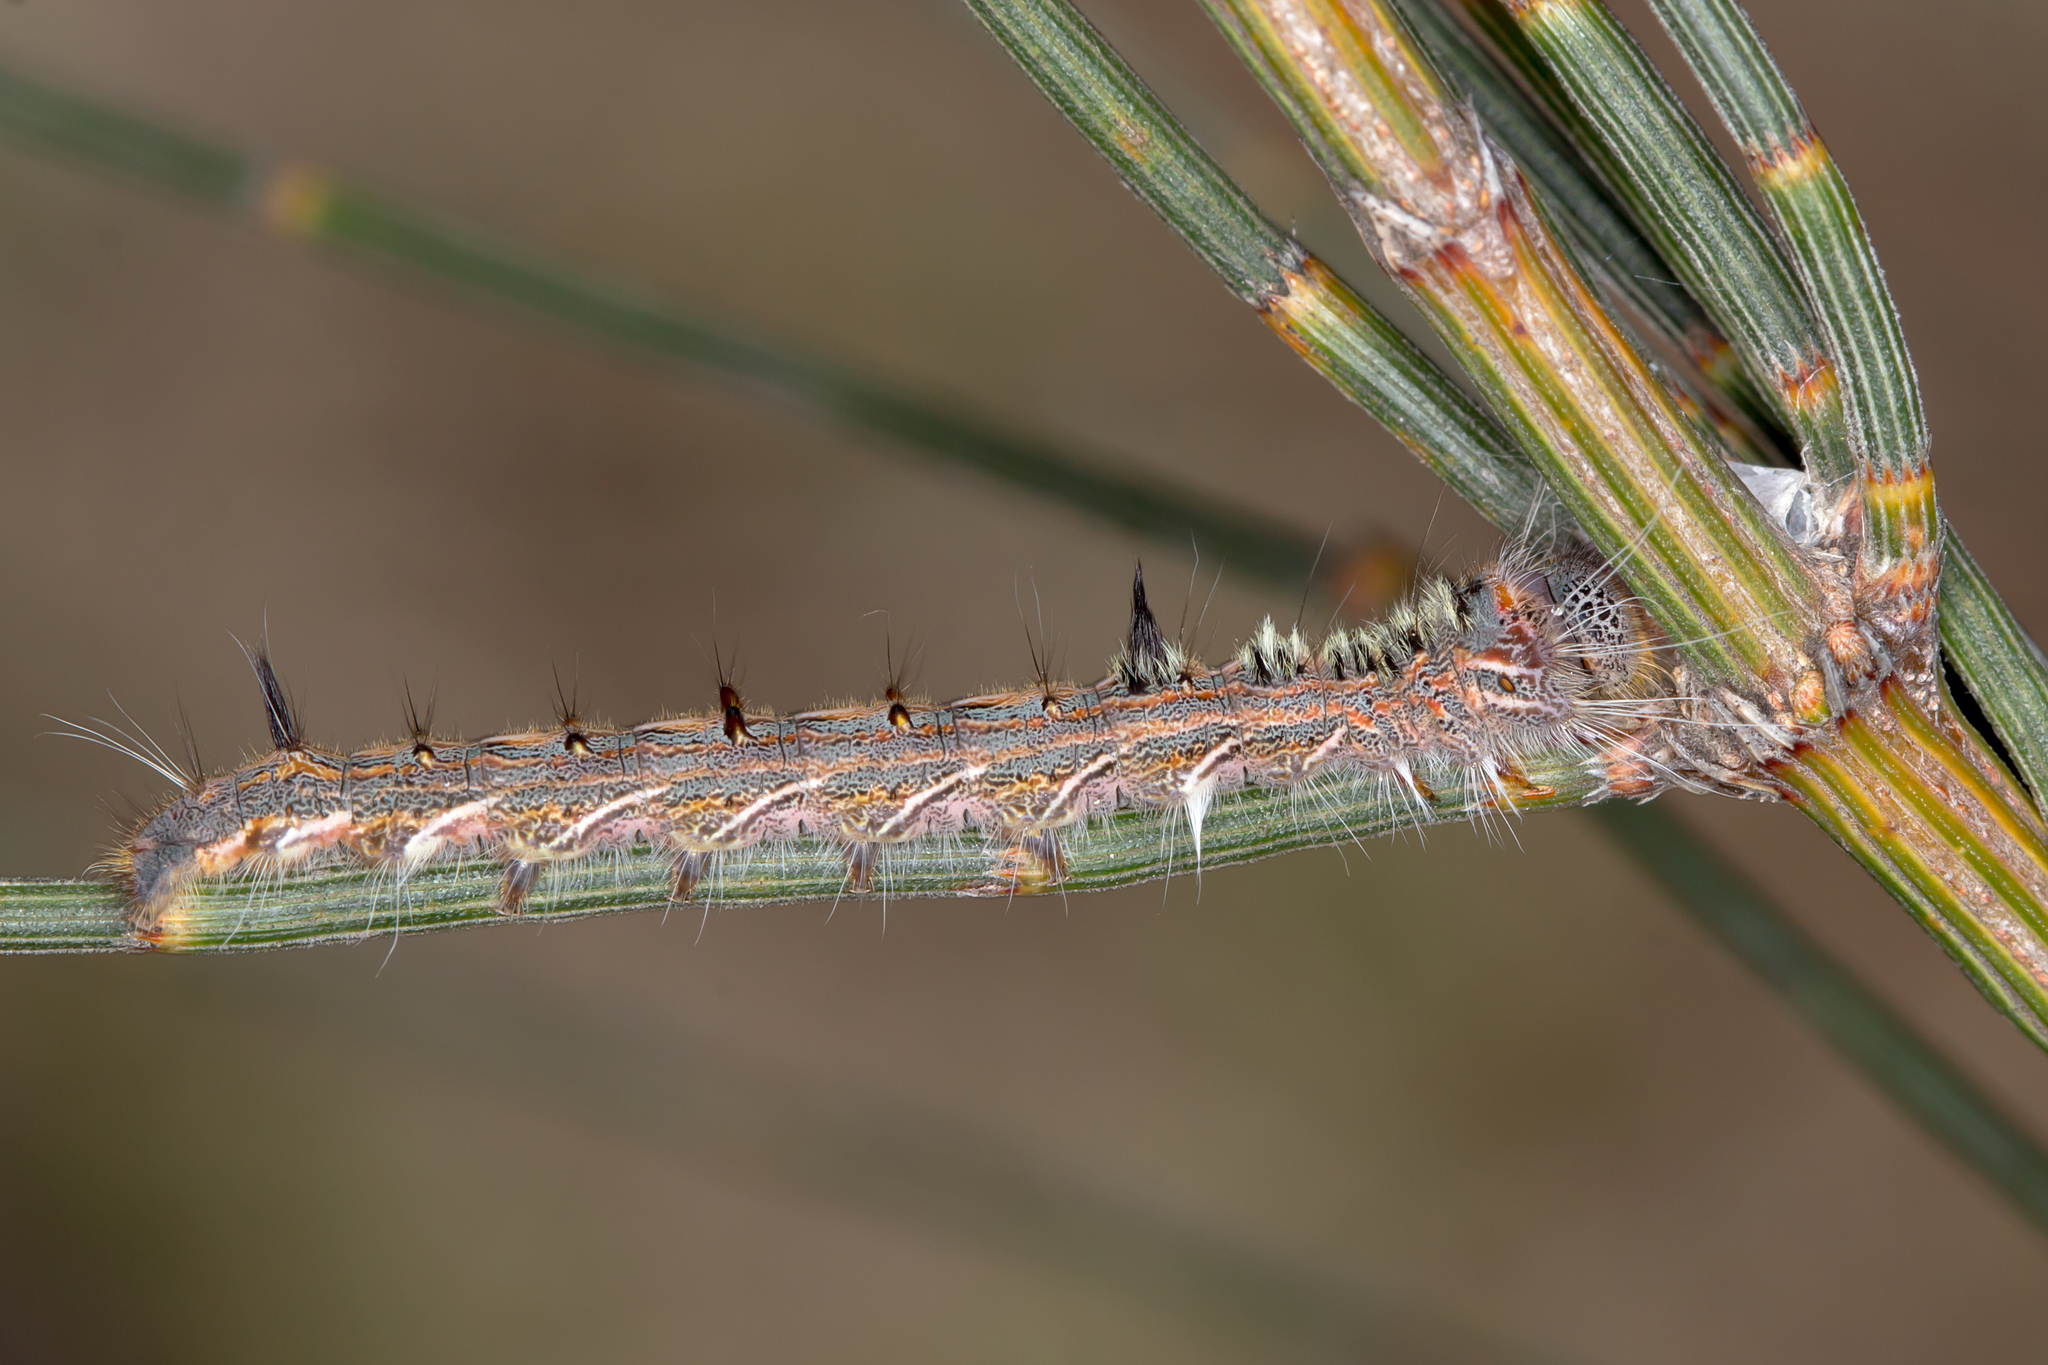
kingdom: Animalia
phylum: Arthropoda
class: Insecta
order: Lepidoptera
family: Lasiocampidae
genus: Pernattia
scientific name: Pernattia pusilla
